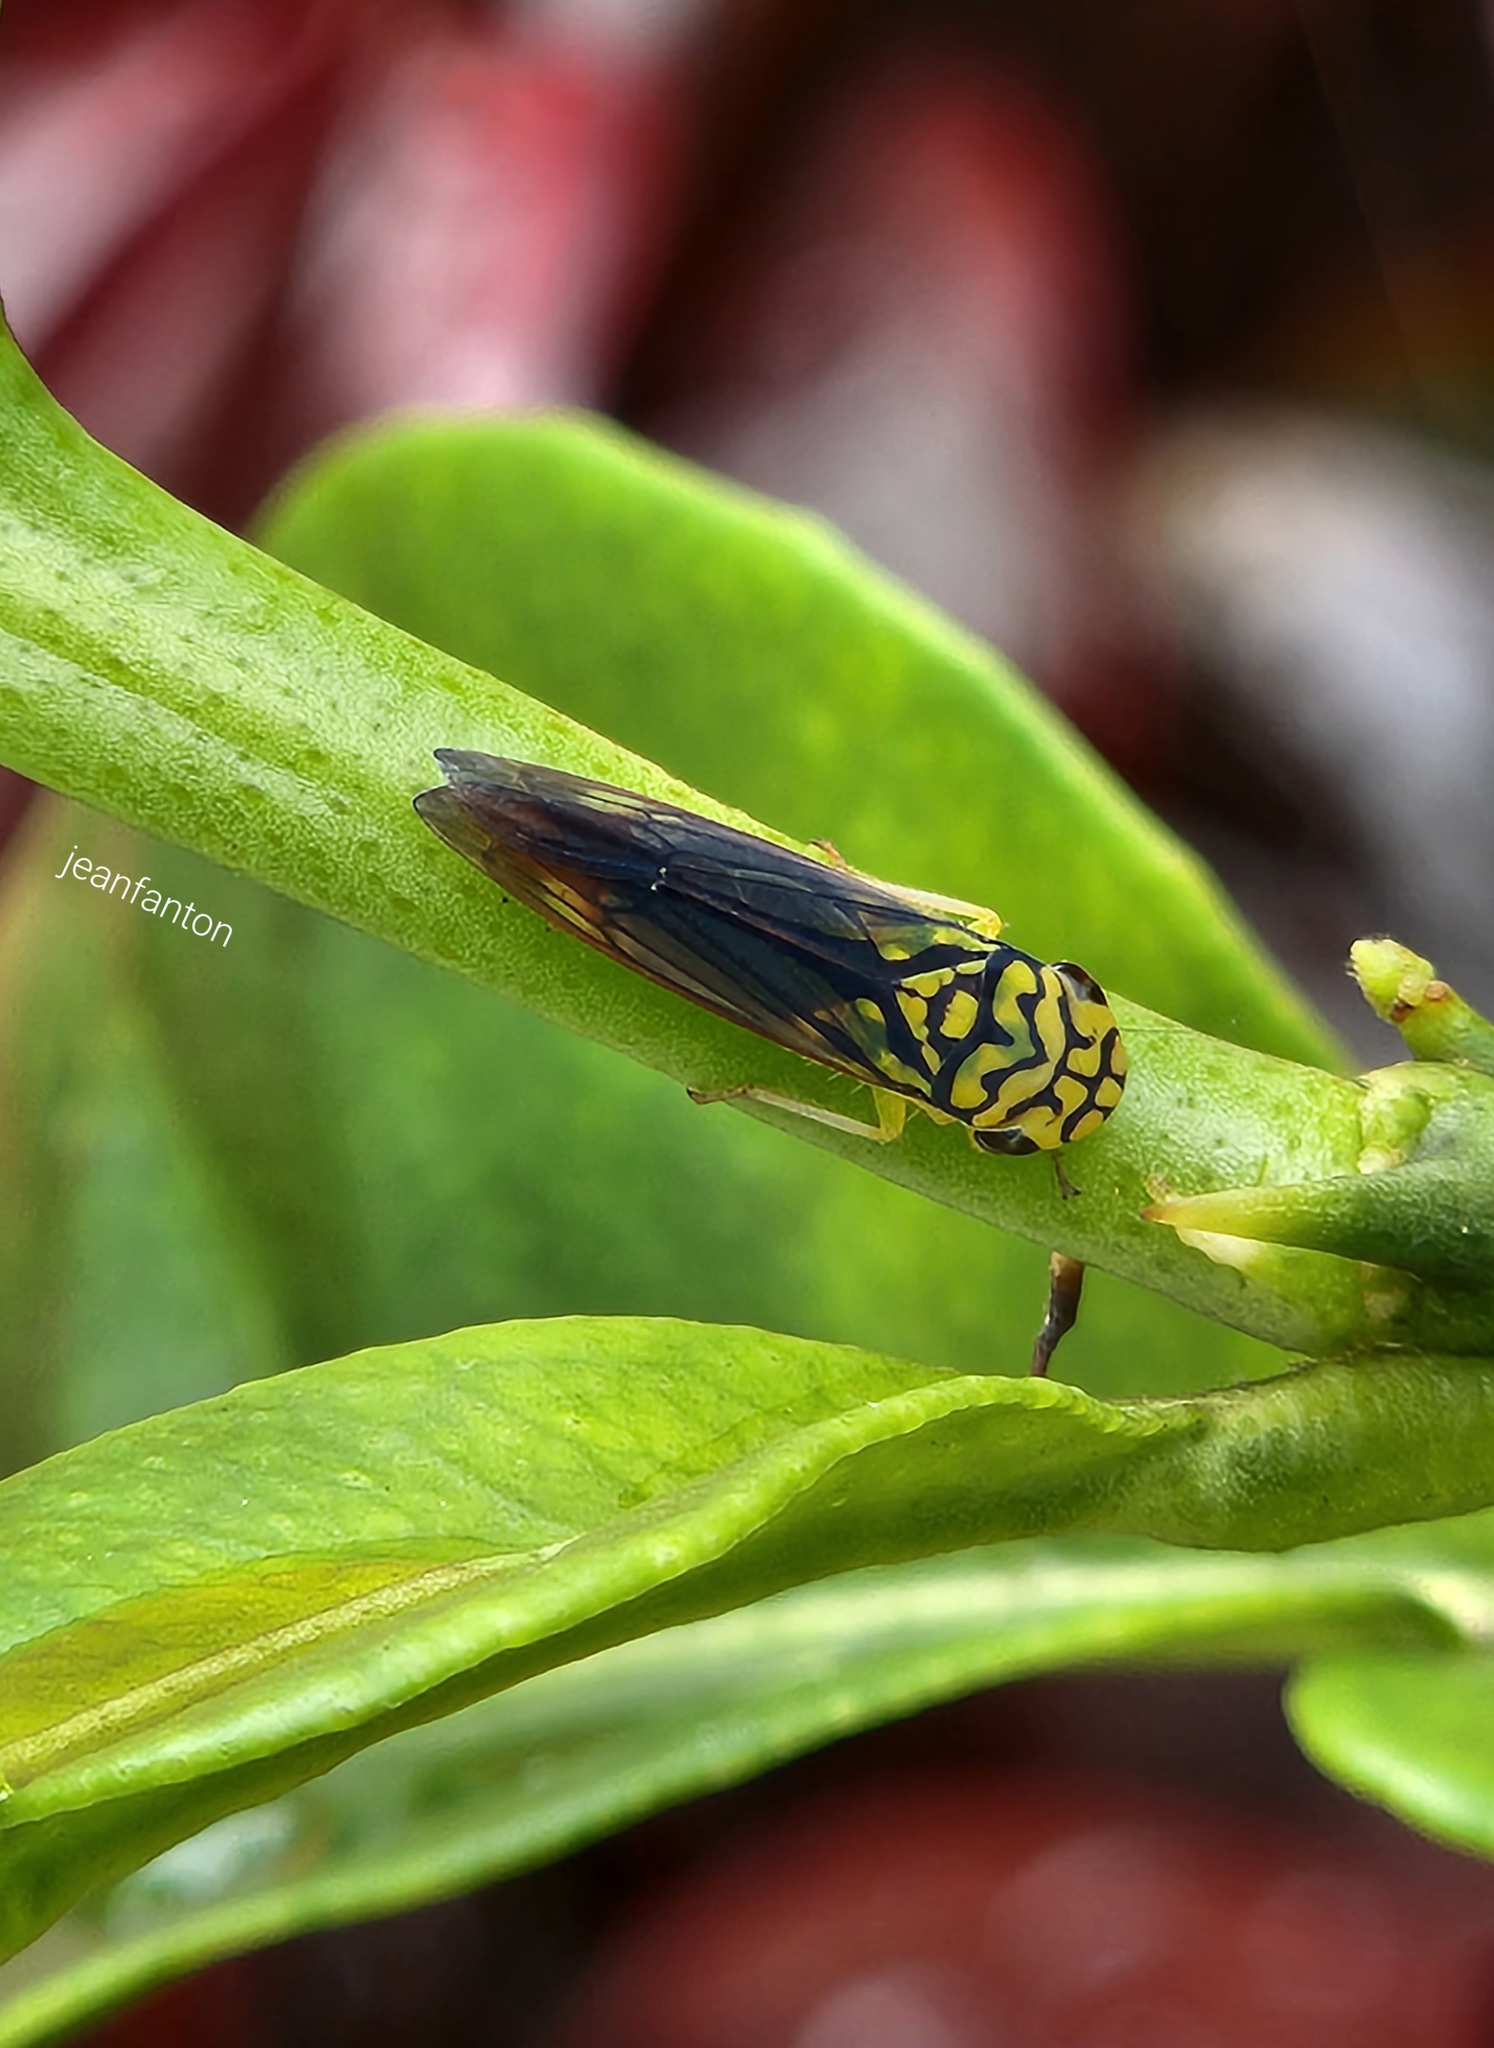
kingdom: Animalia
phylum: Arthropoda
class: Insecta
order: Hemiptera
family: Cicadellidae
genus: Dilobopterus
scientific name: Dilobopterus costalimai
